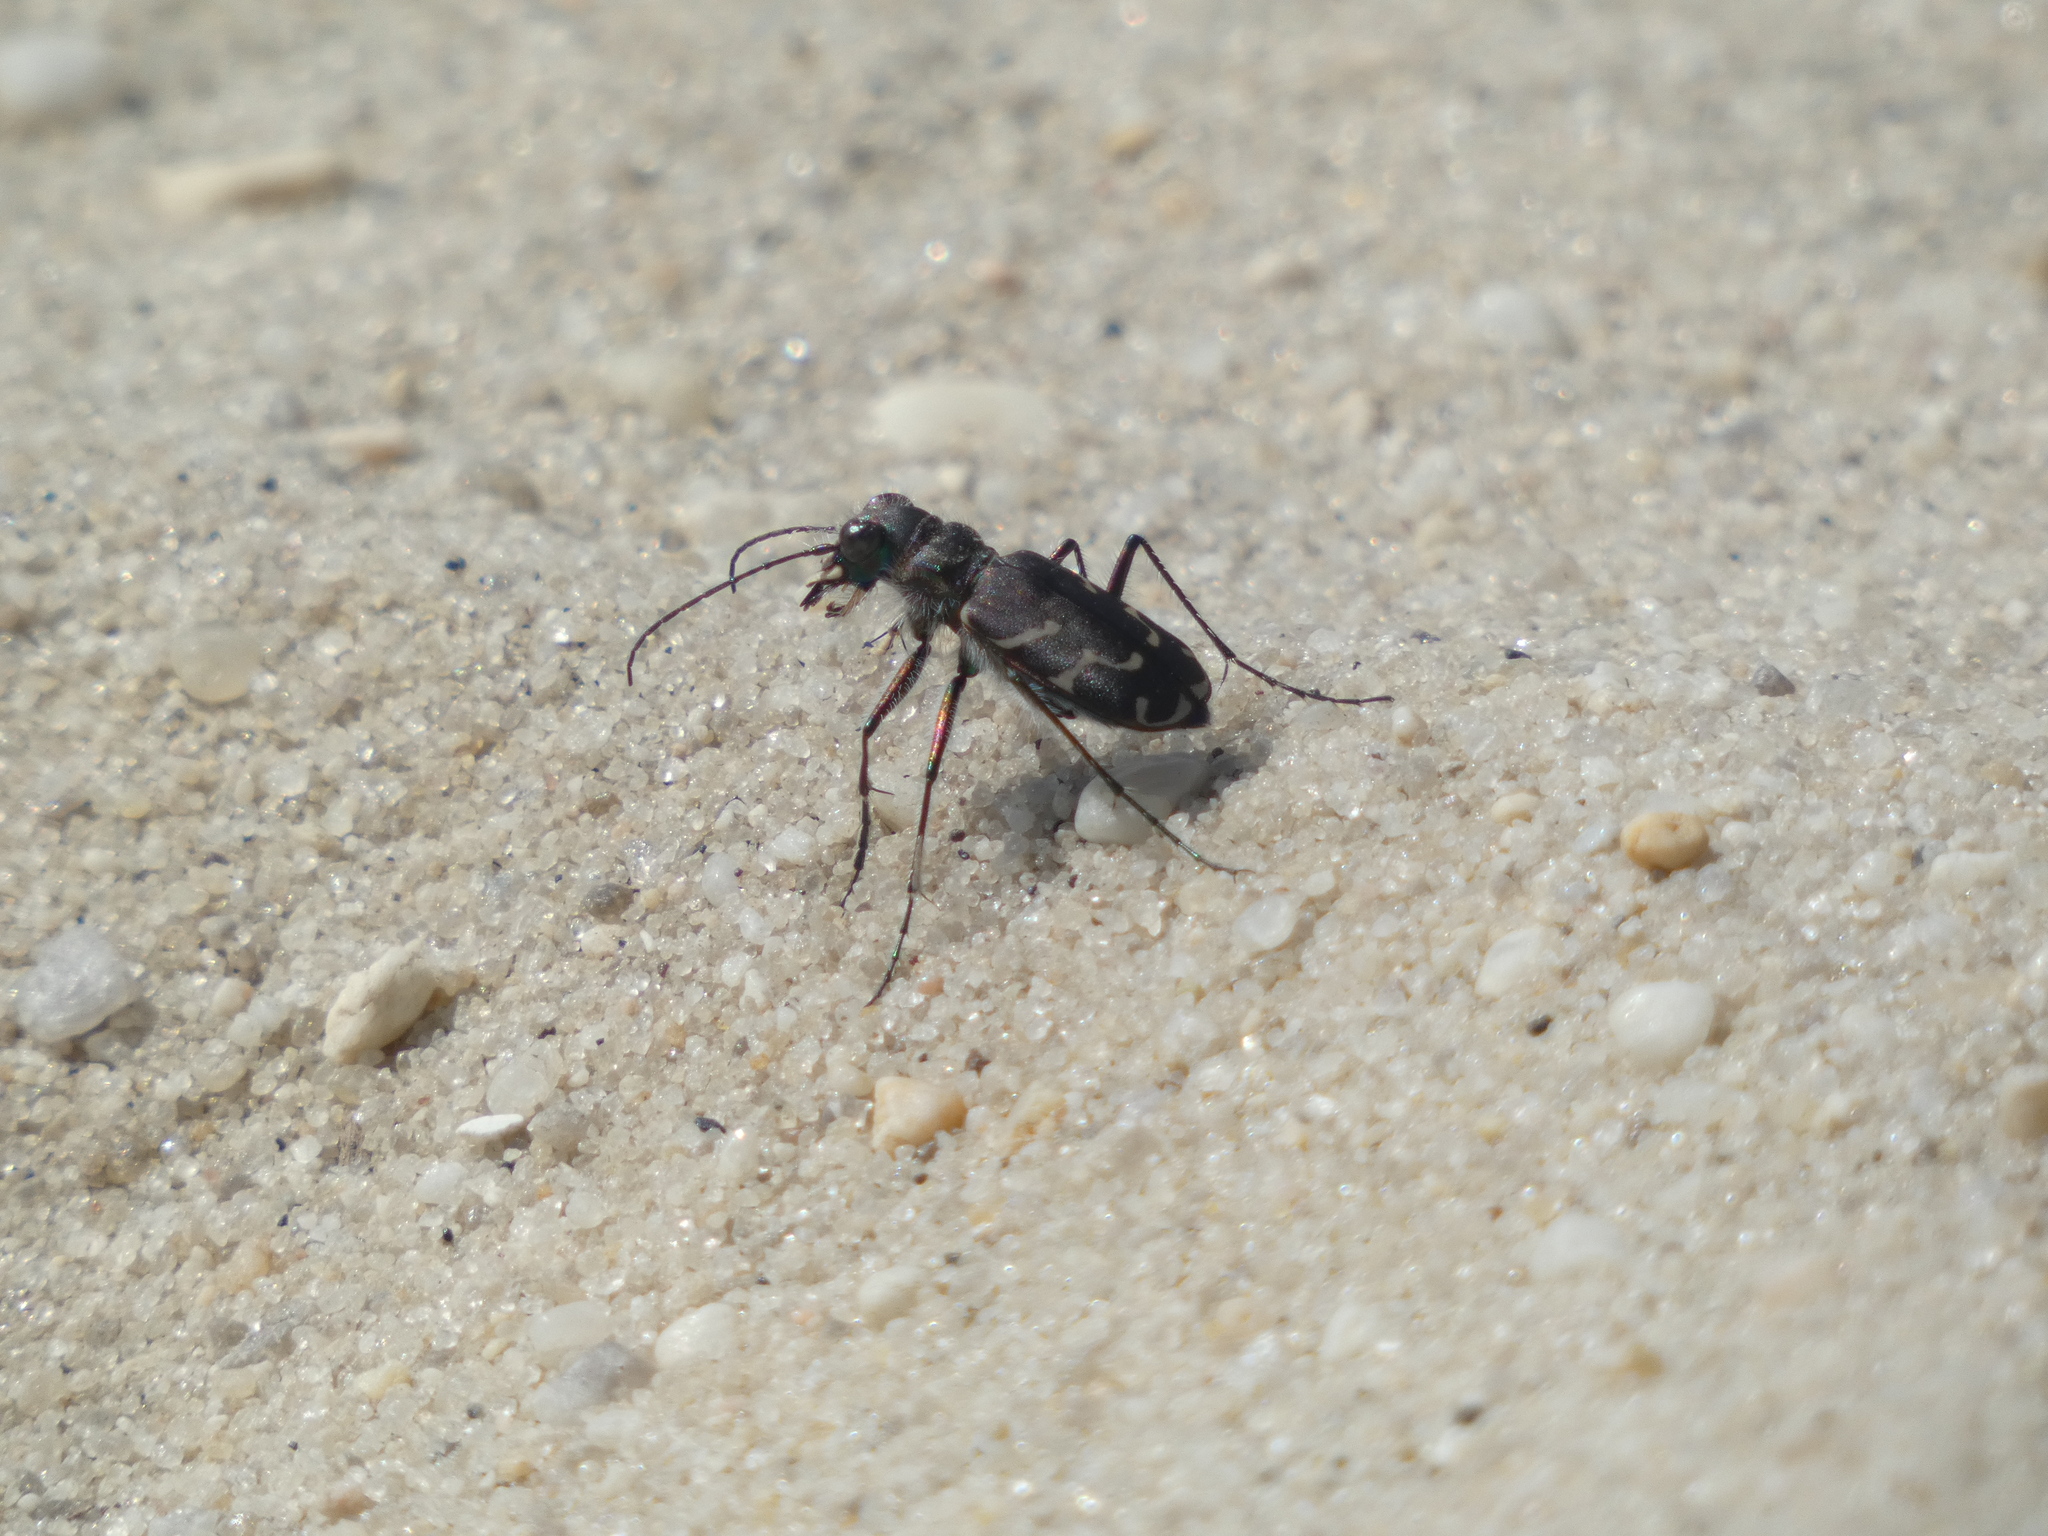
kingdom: Animalia
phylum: Arthropoda
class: Insecta
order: Coleoptera
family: Carabidae
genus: Cicindela
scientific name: Cicindela tranquebarica
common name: Oblique-lined tiger beetle
